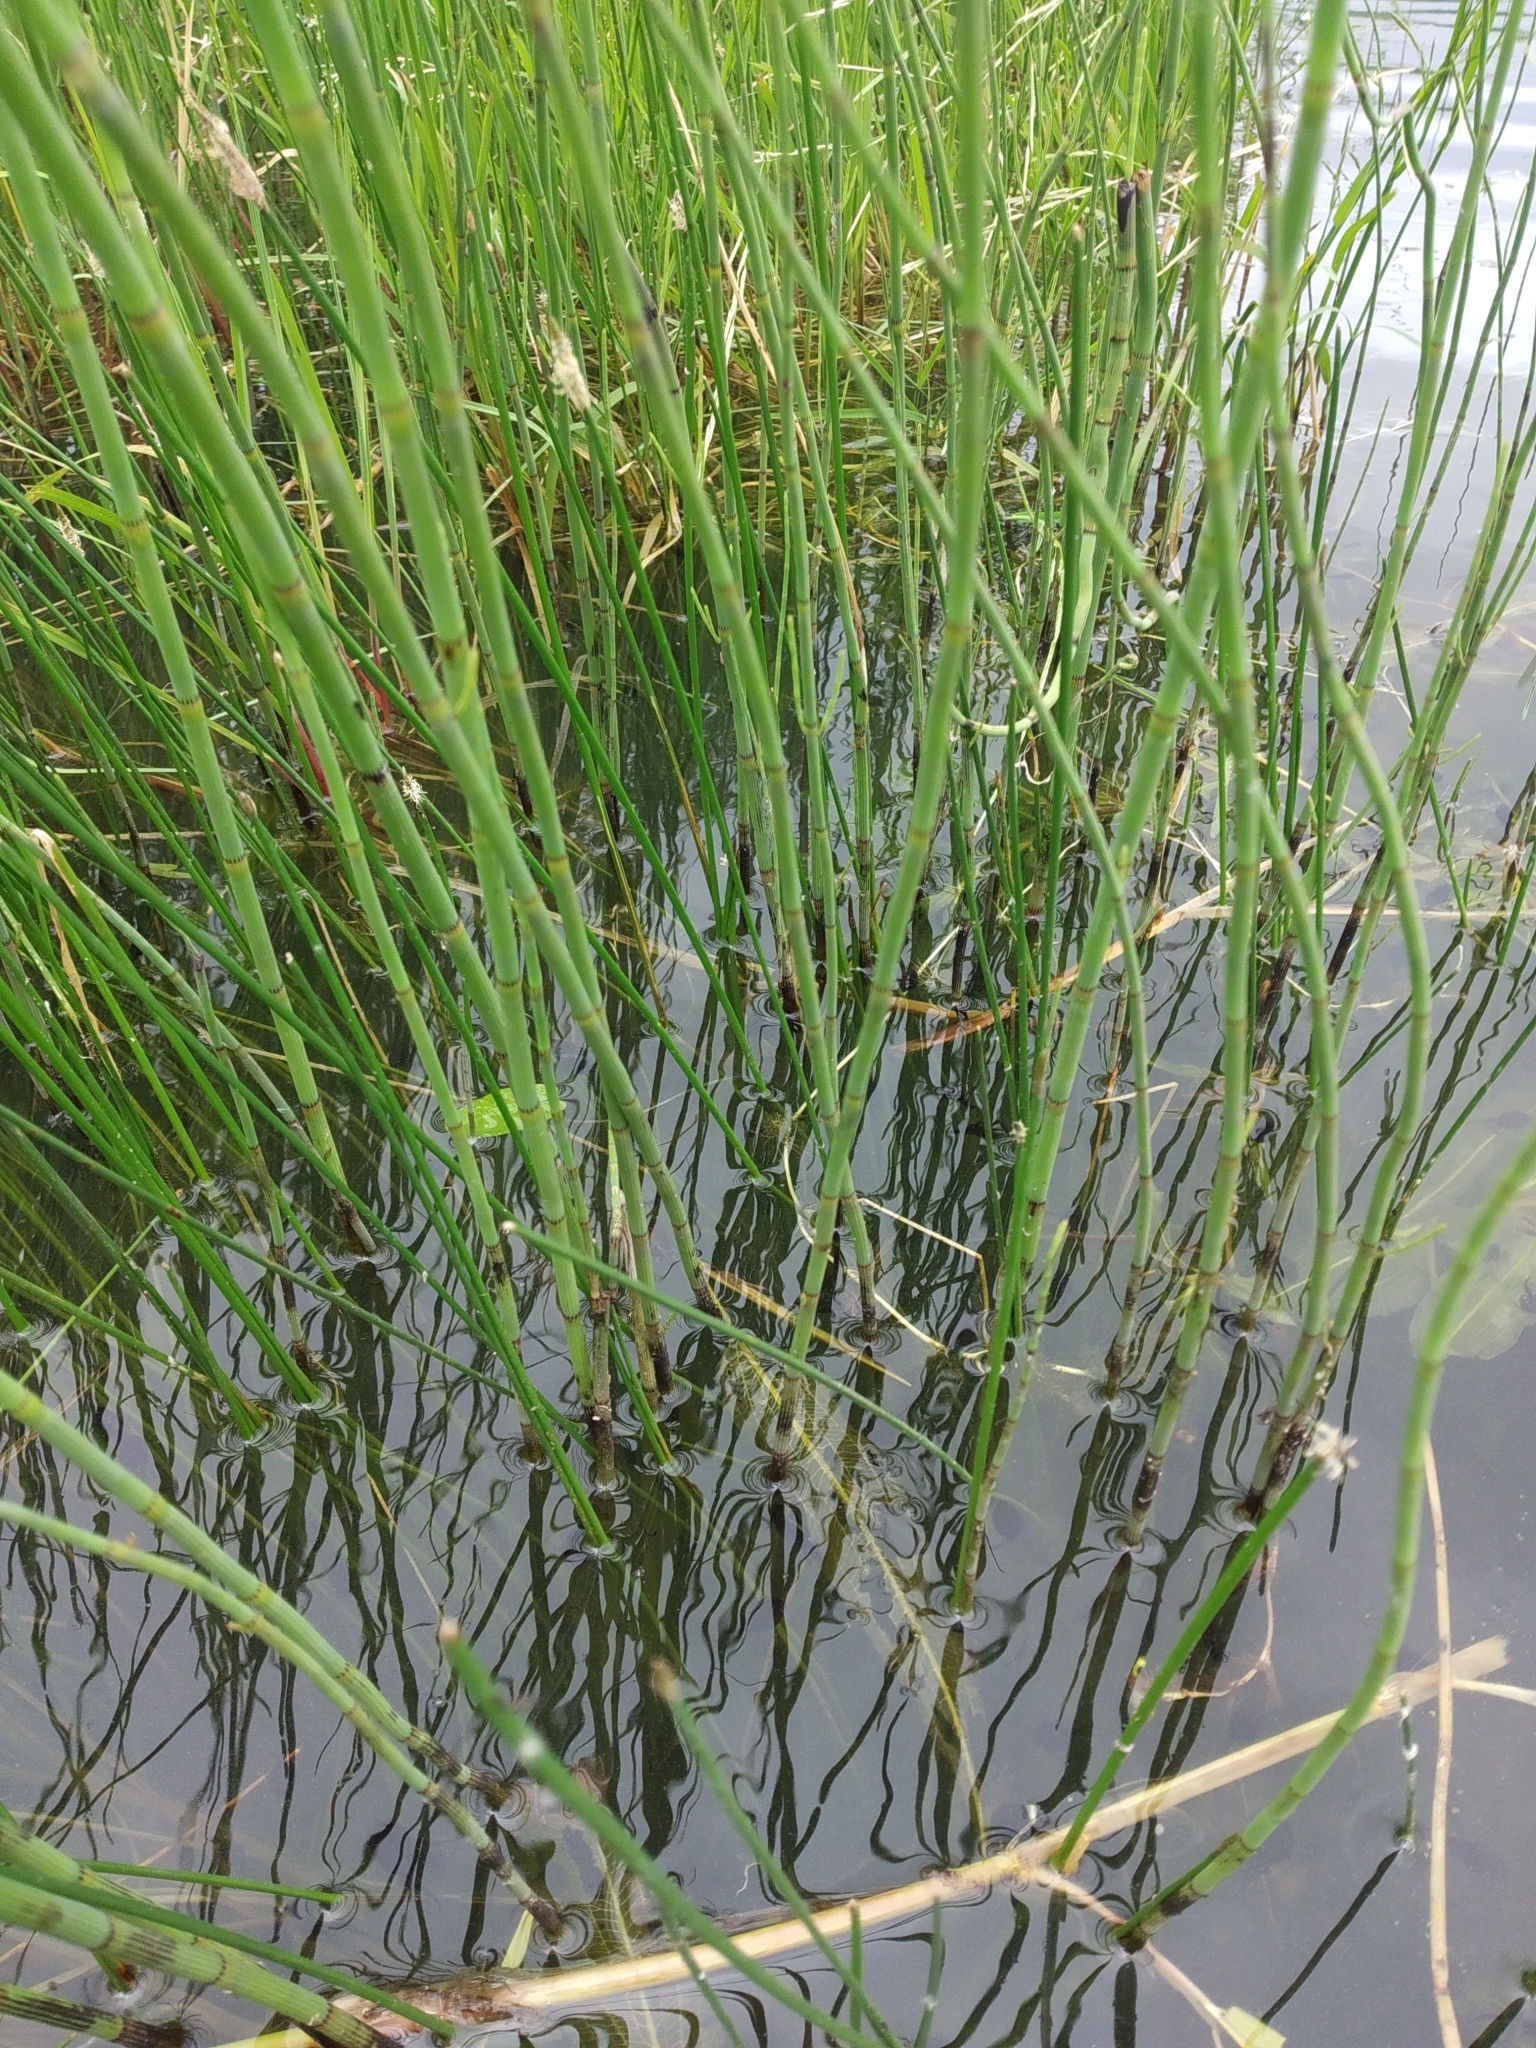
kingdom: Plantae
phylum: Tracheophyta
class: Polypodiopsida
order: Equisetales
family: Equisetaceae
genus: Equisetum
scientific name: Equisetum fluviatile
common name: Water horsetail
